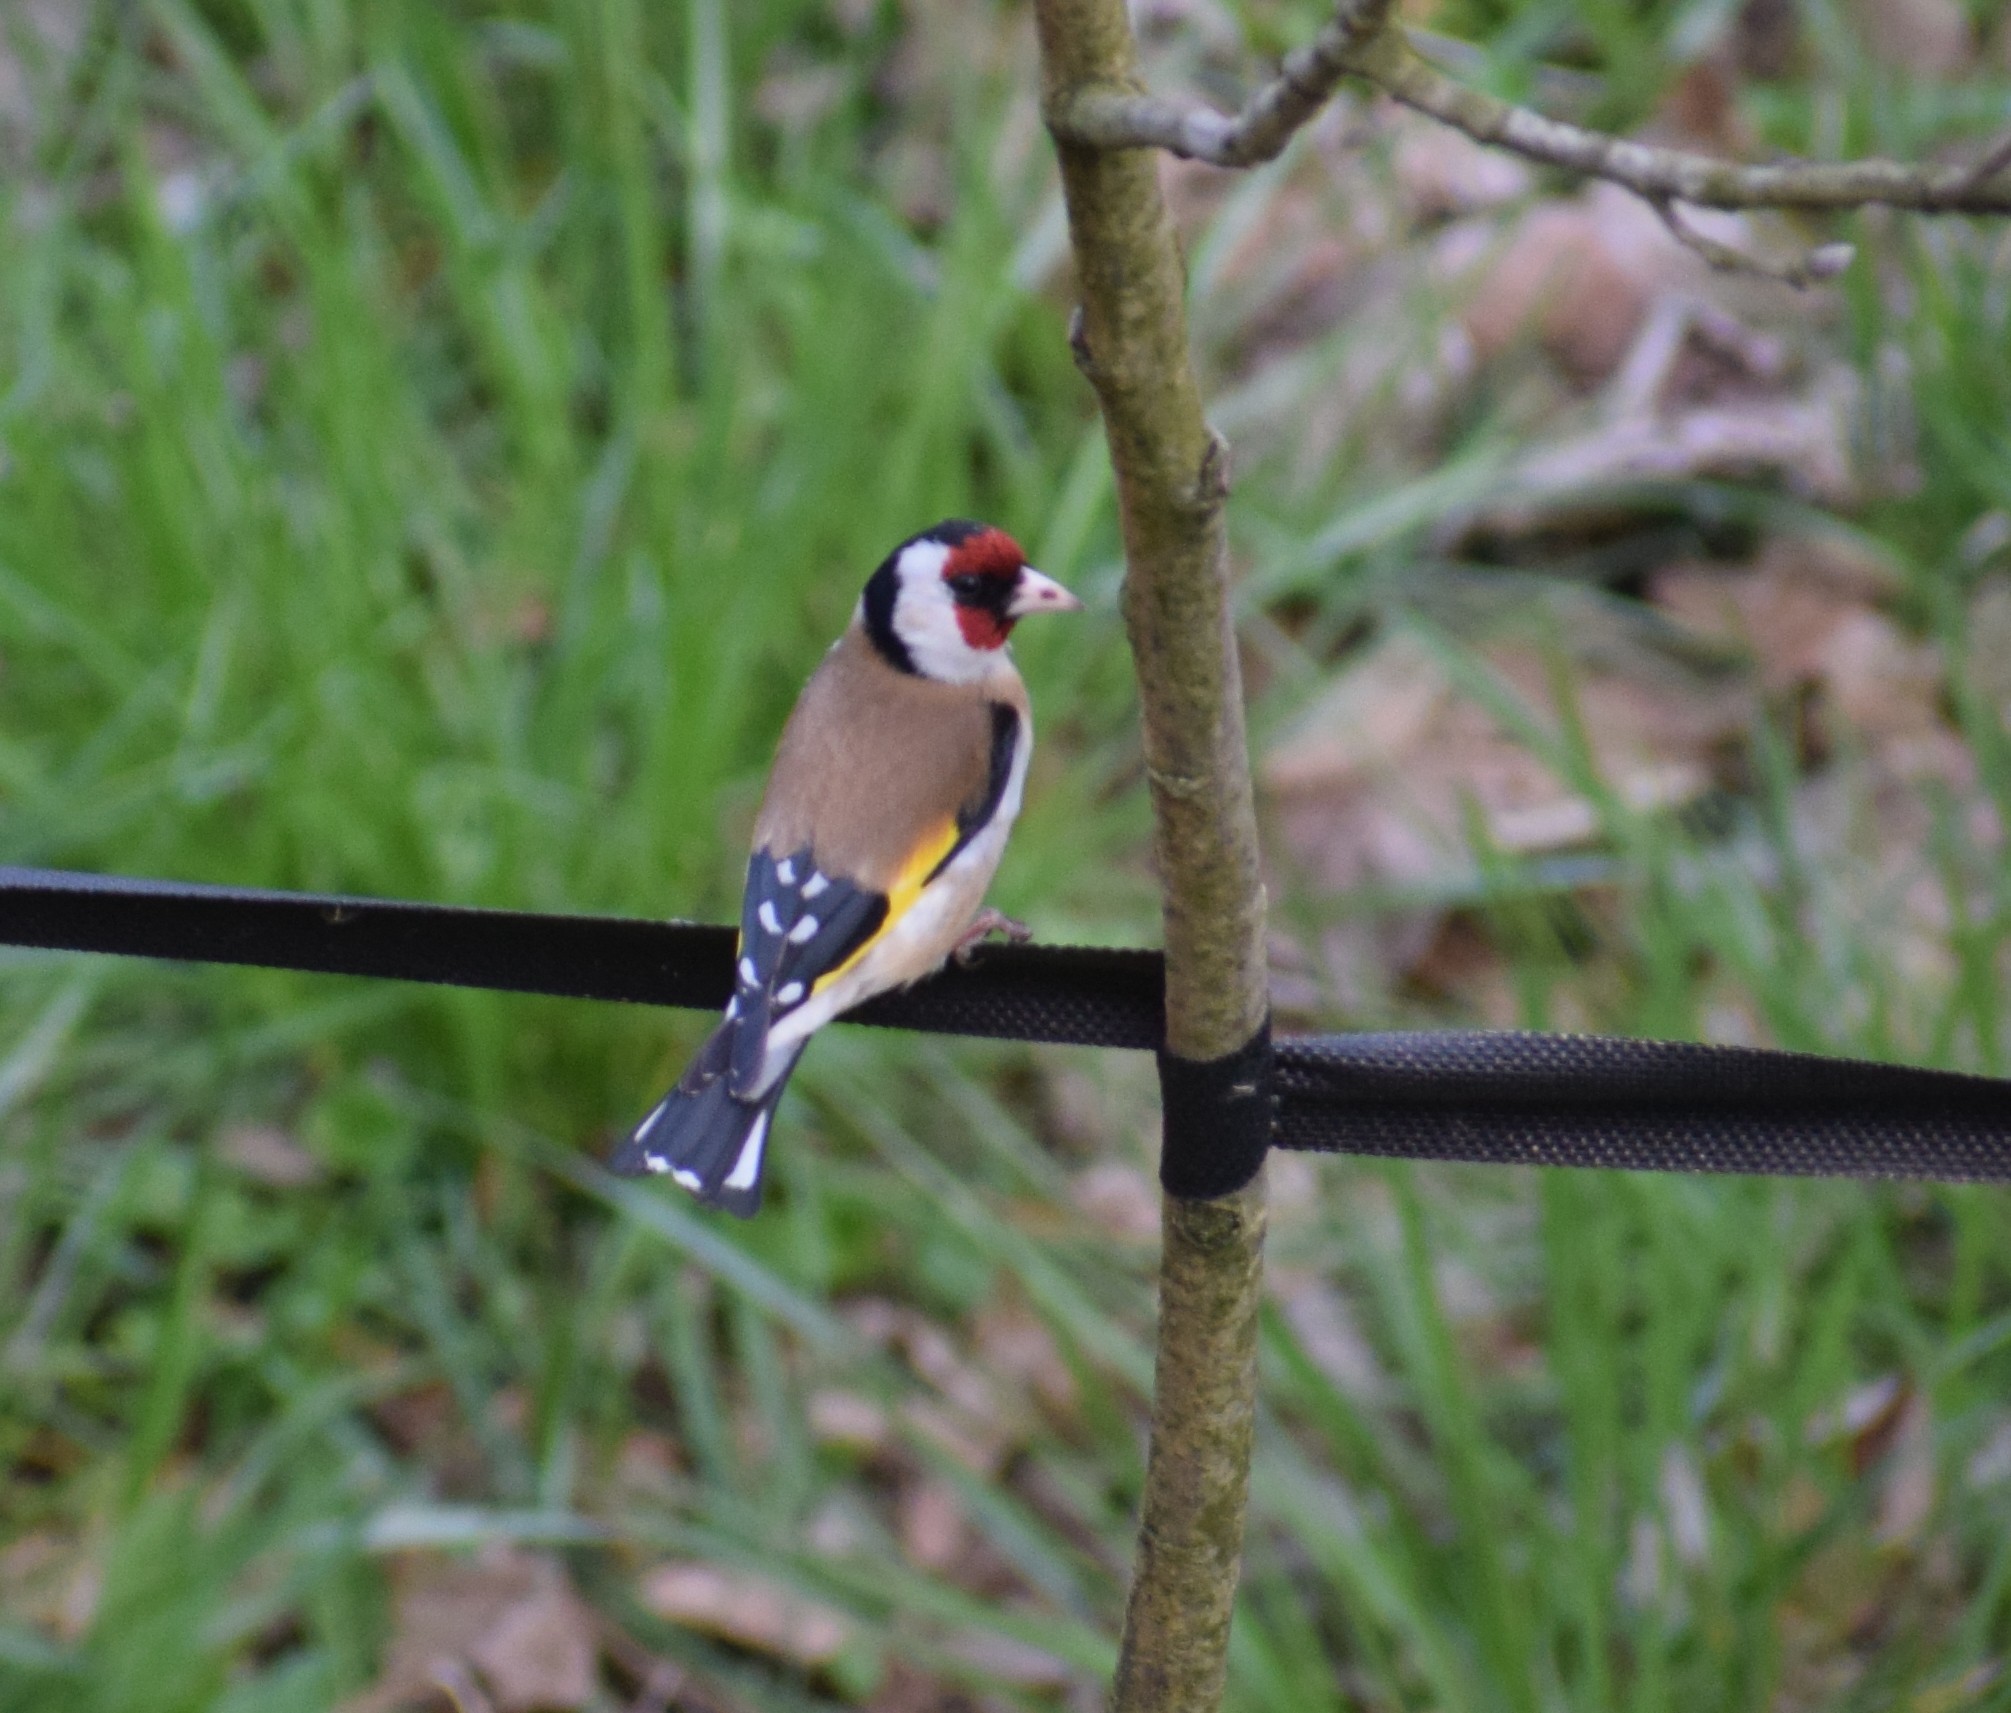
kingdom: Animalia
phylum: Chordata
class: Aves
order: Passeriformes
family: Fringillidae
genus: Carduelis
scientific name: Carduelis carduelis
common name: European goldfinch
